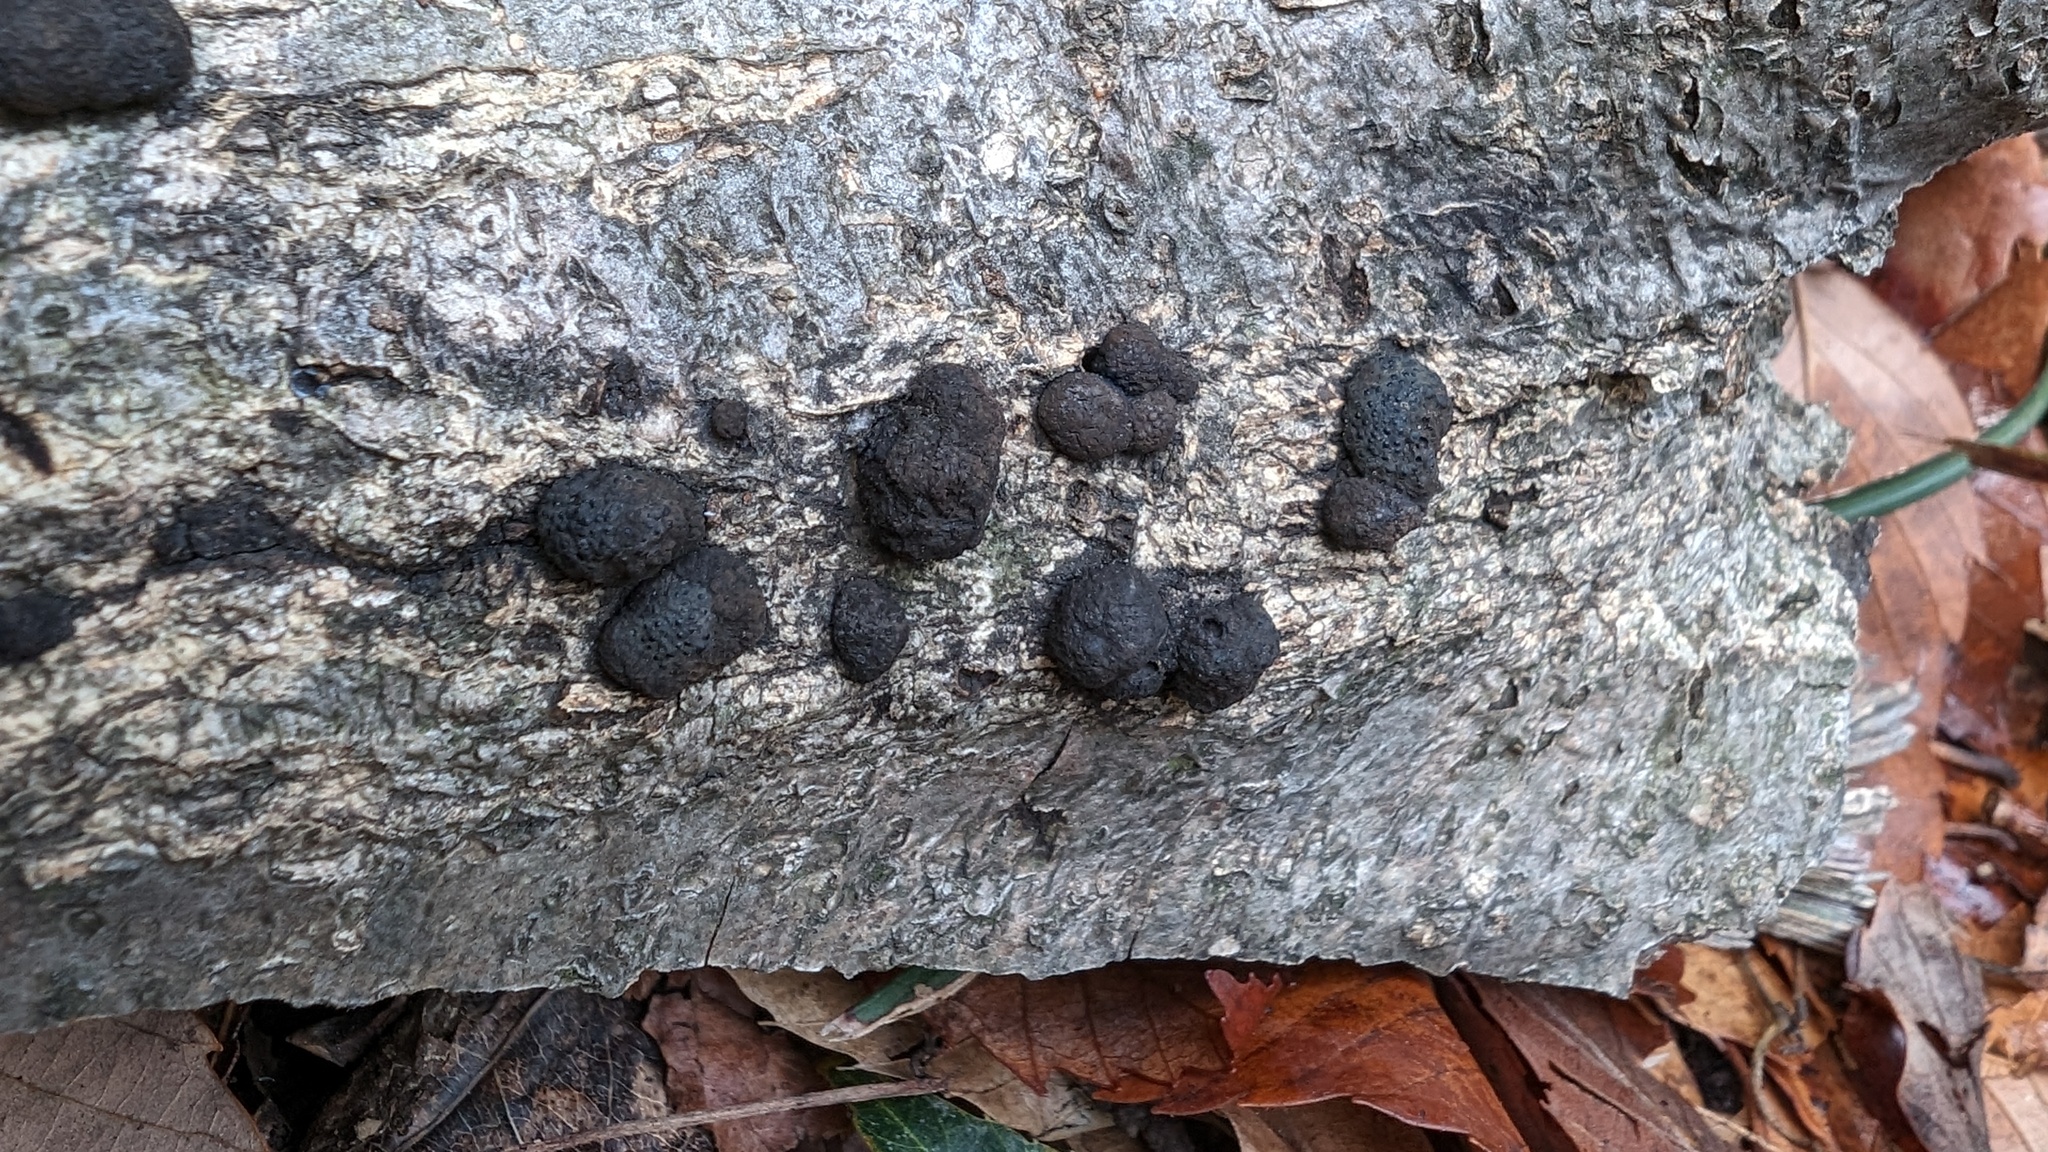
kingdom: Fungi
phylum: Ascomycota
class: Sordariomycetes
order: Xylariales
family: Hypoxylaceae
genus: Annulohypoxylon
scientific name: Annulohypoxylon truncatum
